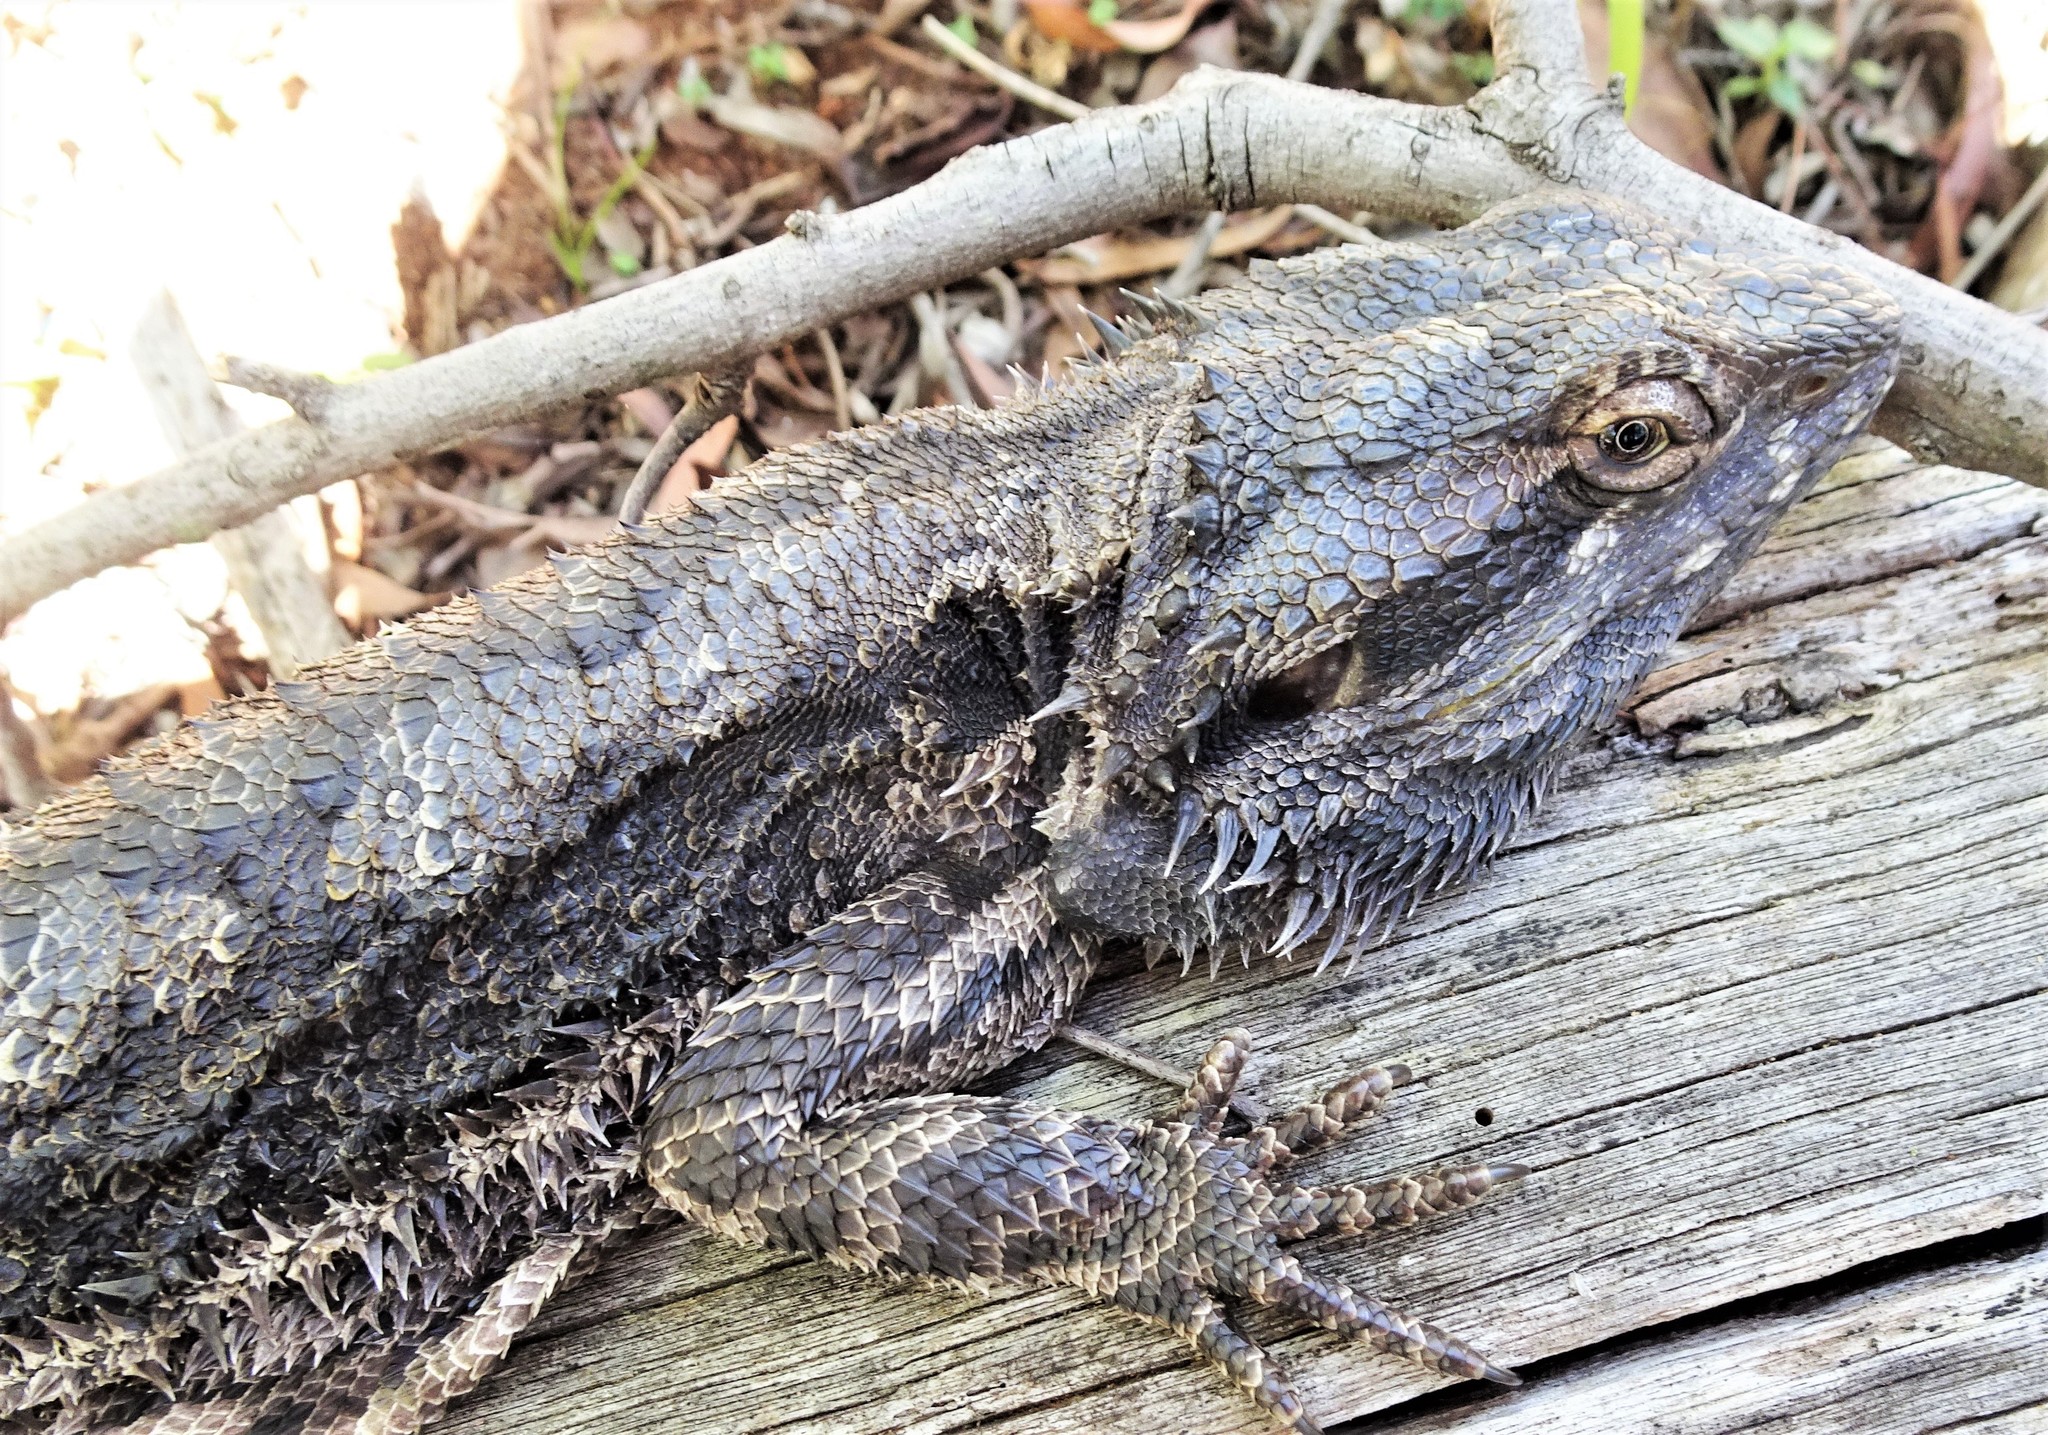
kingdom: Animalia
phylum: Chordata
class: Squamata
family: Agamidae
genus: Pogona
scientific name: Pogona barbata
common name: Bearded dragon
